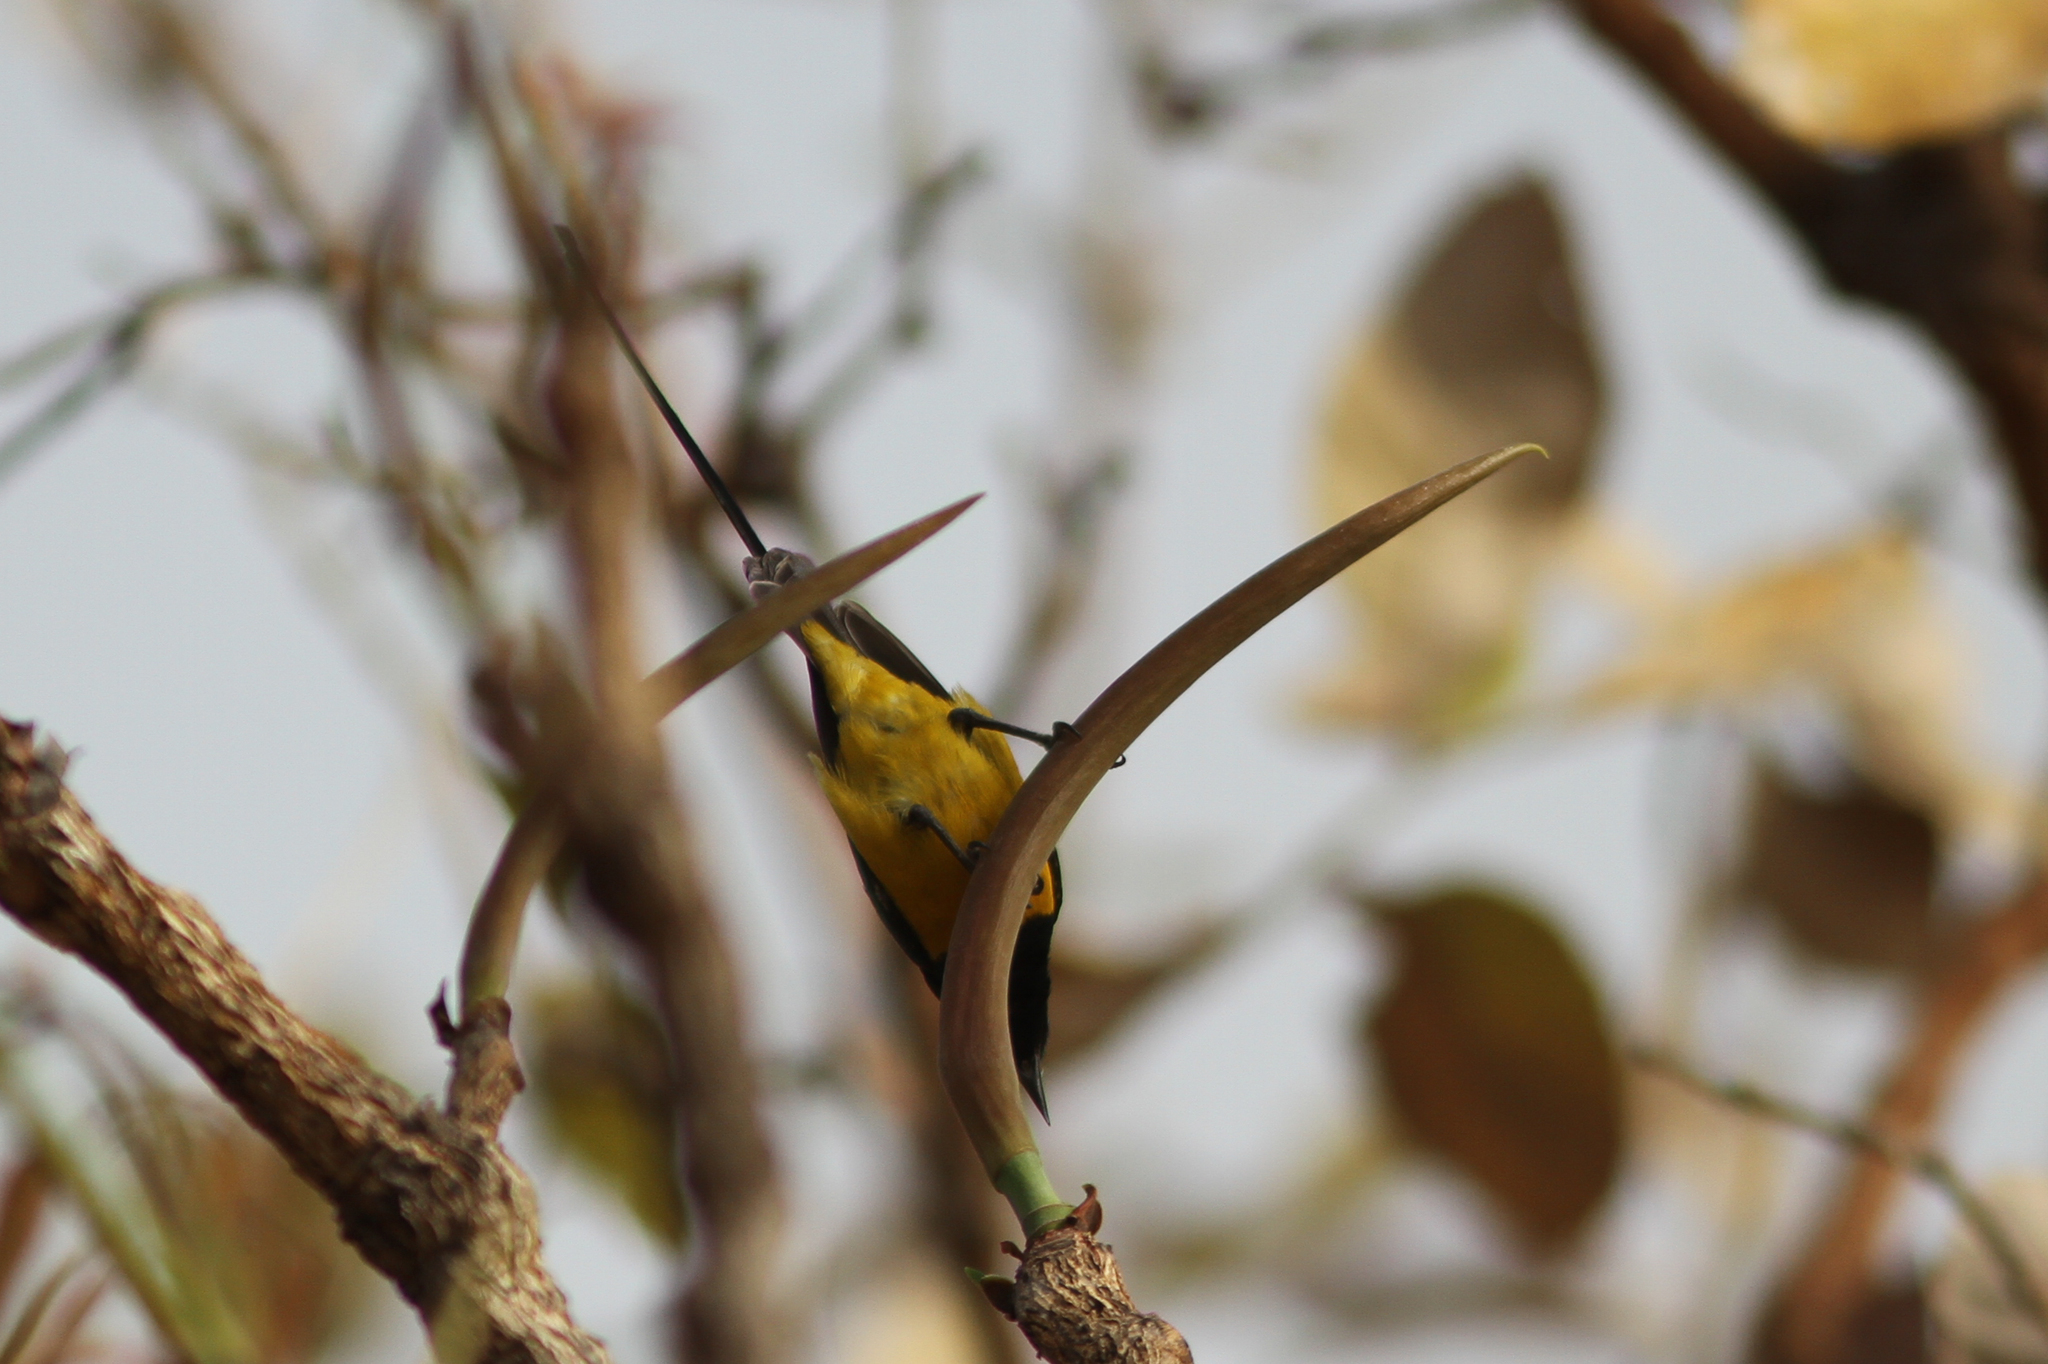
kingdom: Animalia
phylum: Chordata
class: Aves
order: Passeriformes
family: Nectariniidae
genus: Hedydipna
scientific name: Hedydipna platura
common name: Pygmy sunbird
